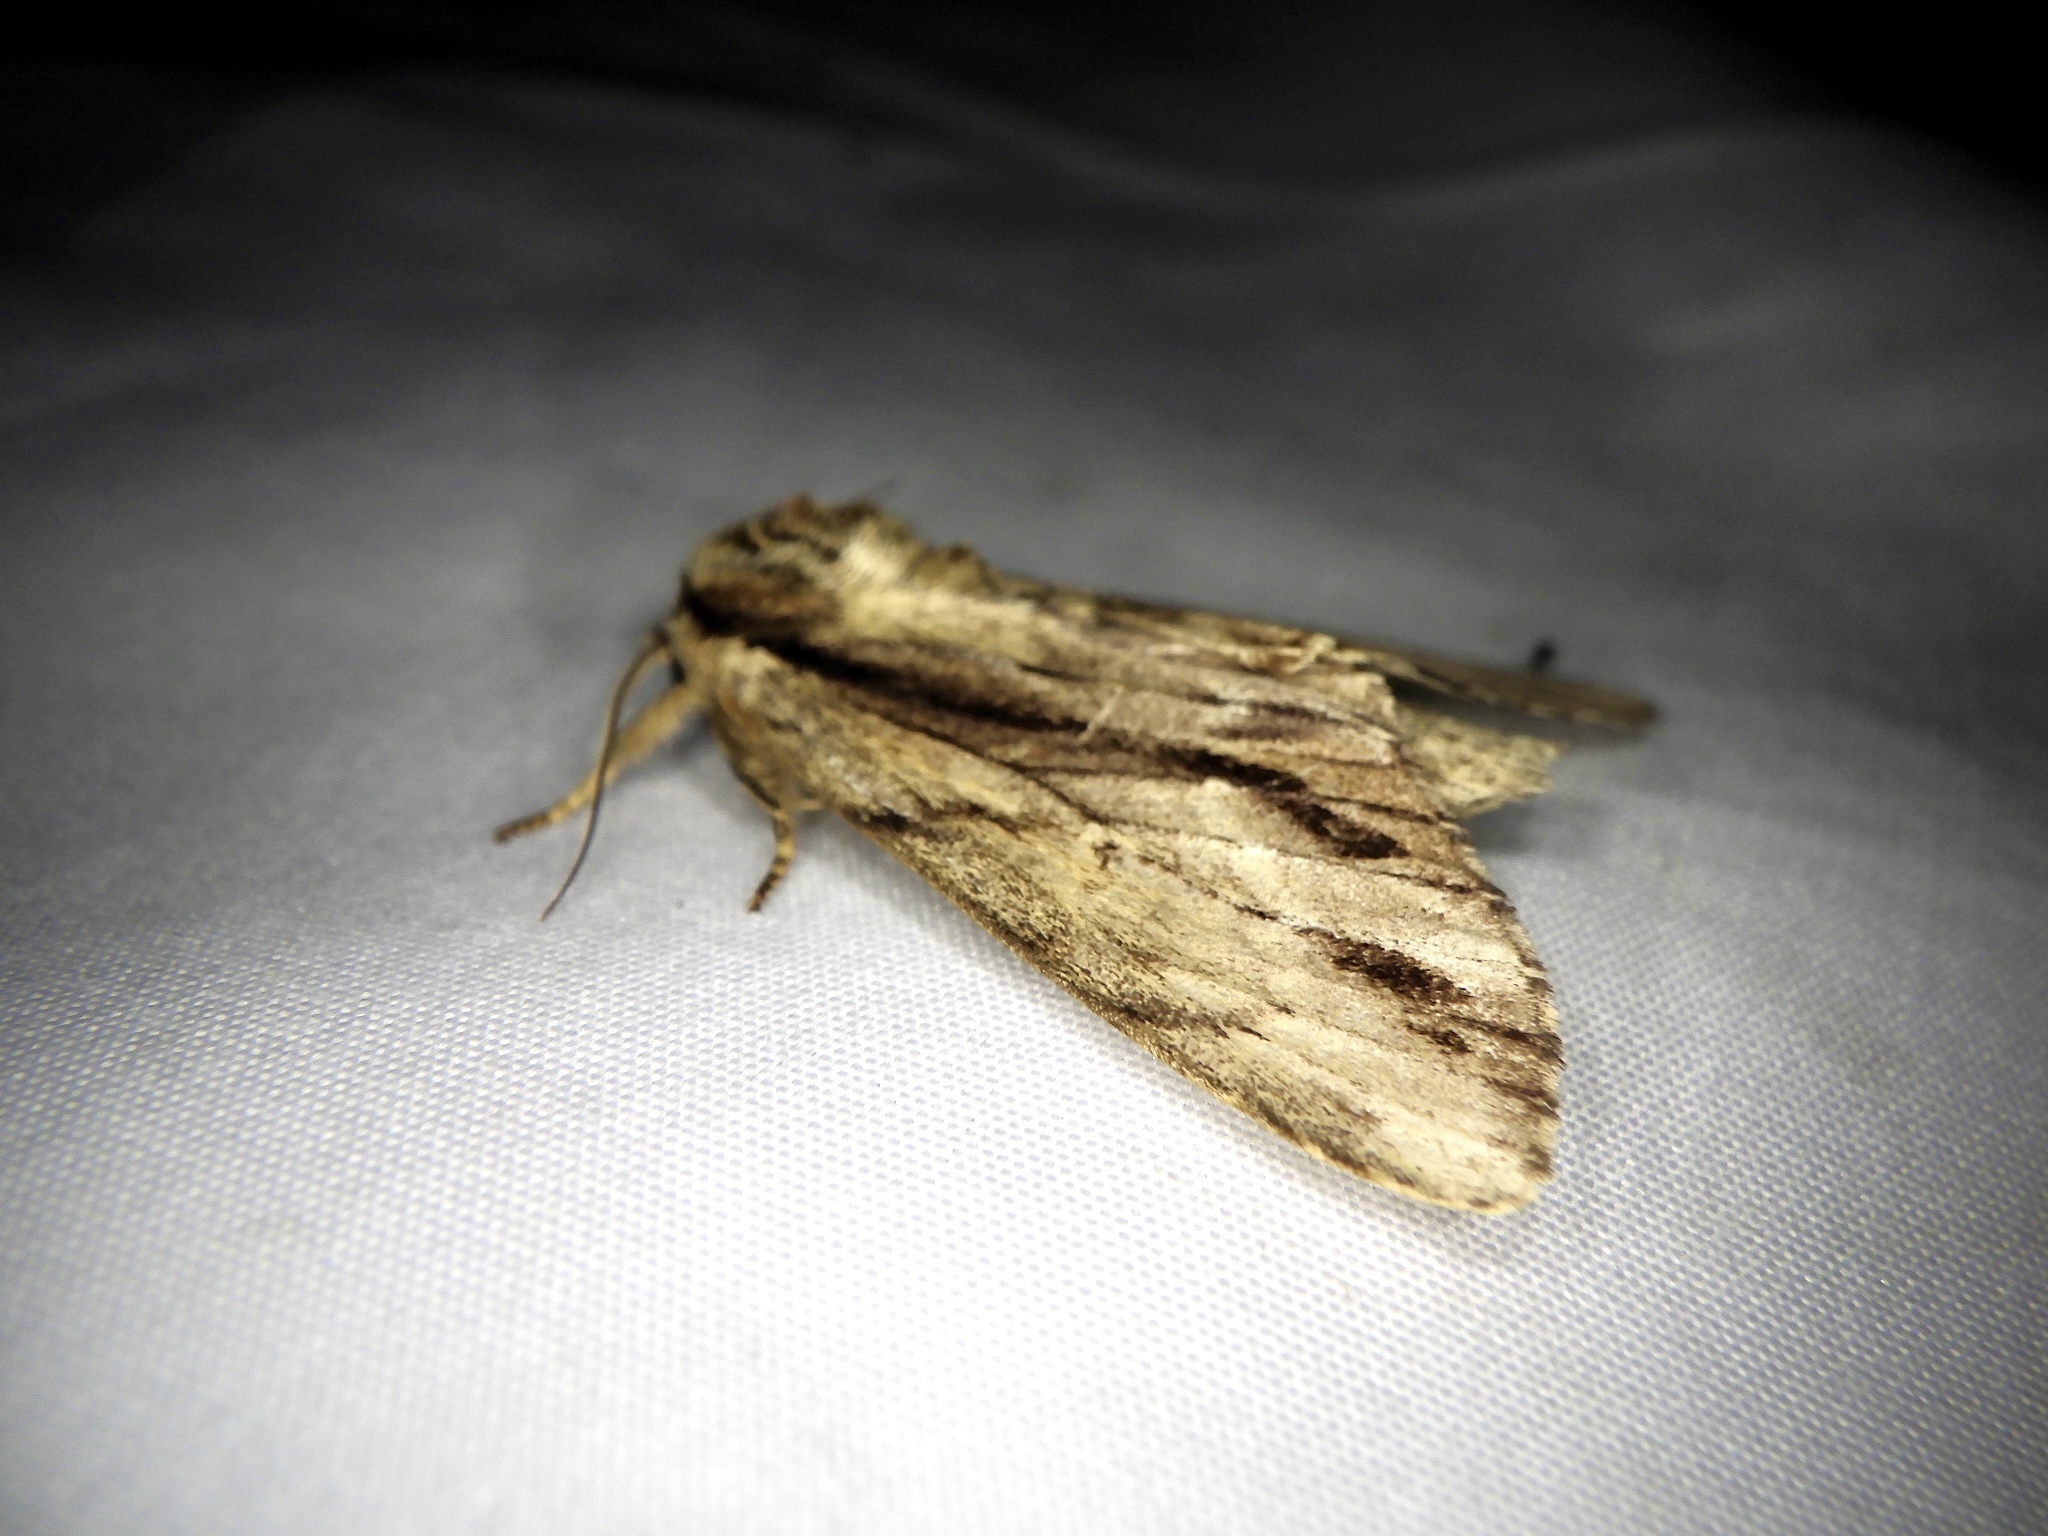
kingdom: Animalia
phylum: Arthropoda
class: Insecta
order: Lepidoptera
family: Notodontidae
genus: Shaka
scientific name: Shaka atrovittatus
